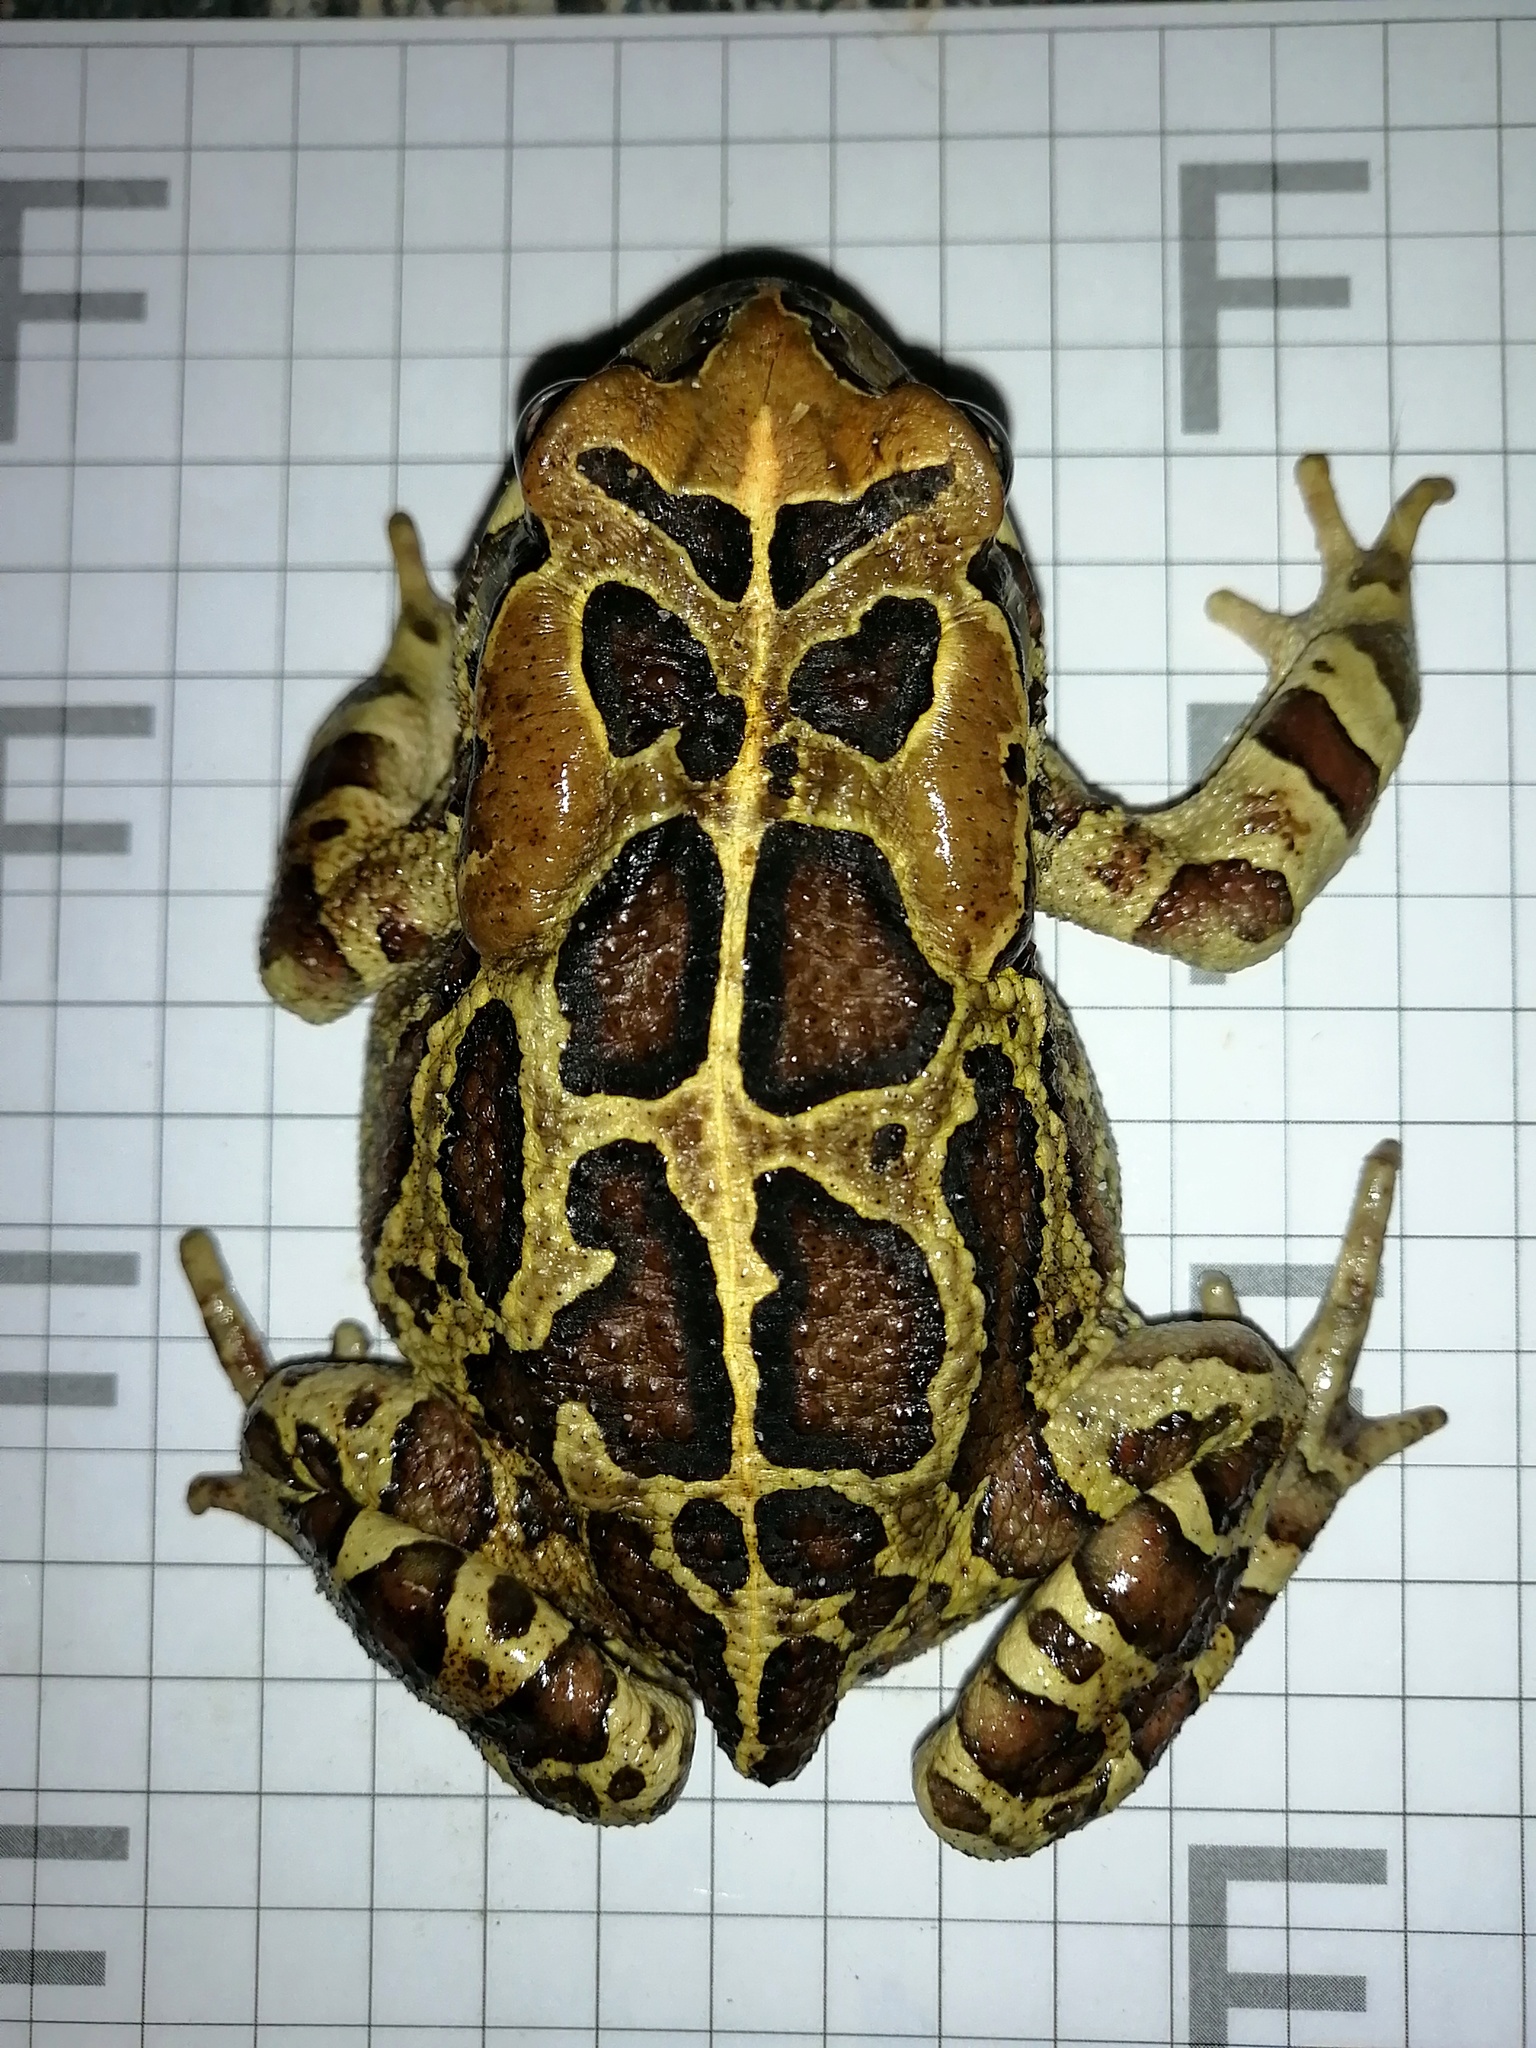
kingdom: Animalia
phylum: Chordata
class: Amphibia
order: Anura
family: Bufonidae
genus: Sclerophrys
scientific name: Sclerophrys pantherina
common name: Panther toad
